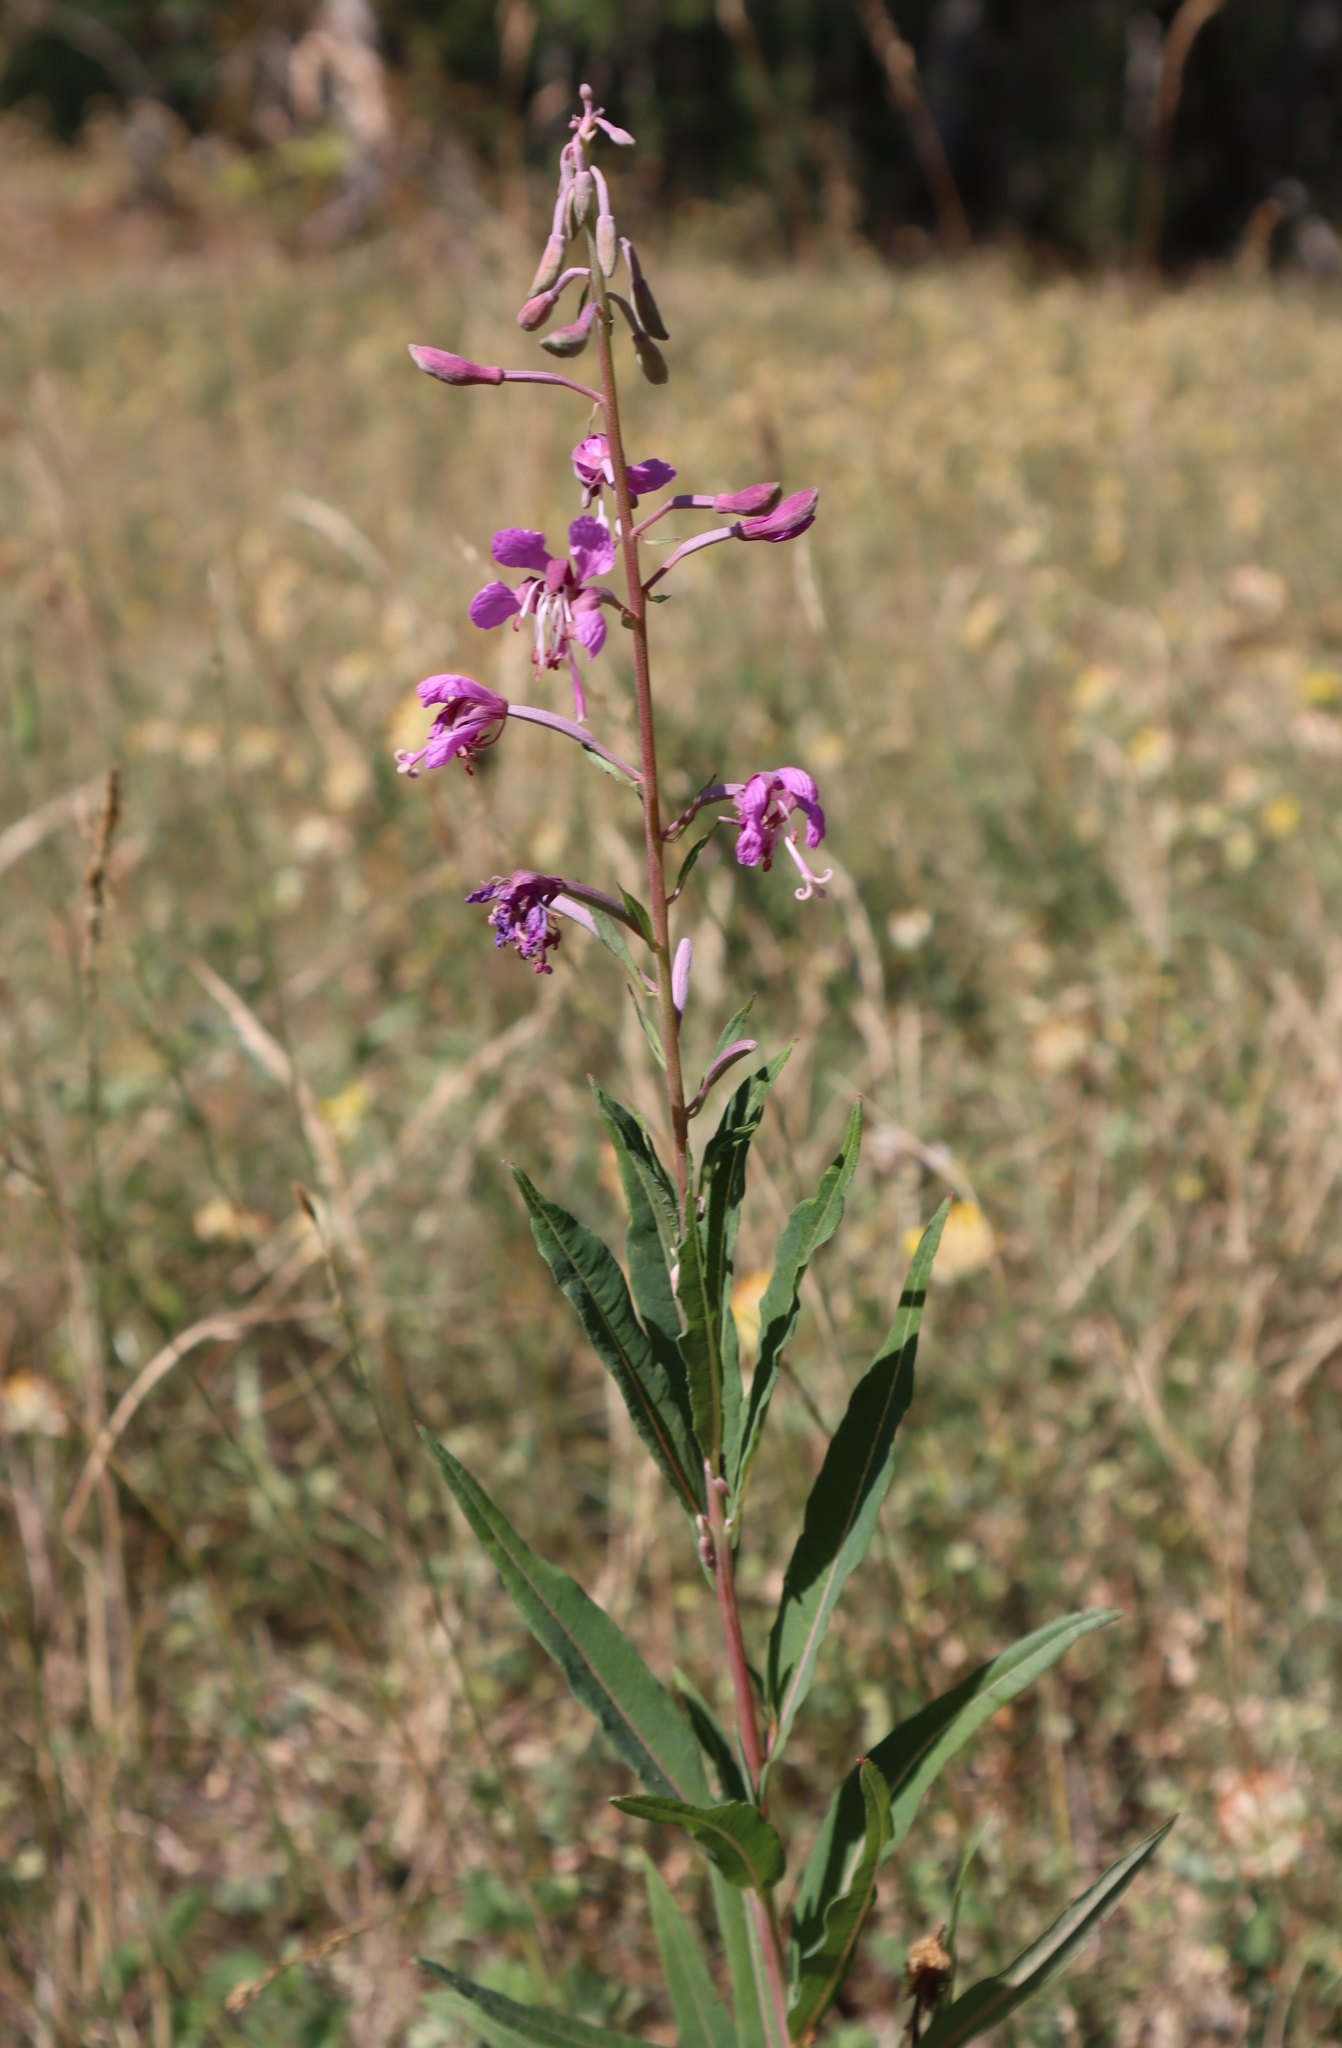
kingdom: Plantae
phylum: Tracheophyta
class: Magnoliopsida
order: Myrtales
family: Onagraceae
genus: Chamaenerion
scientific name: Chamaenerion angustifolium
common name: Fireweed
